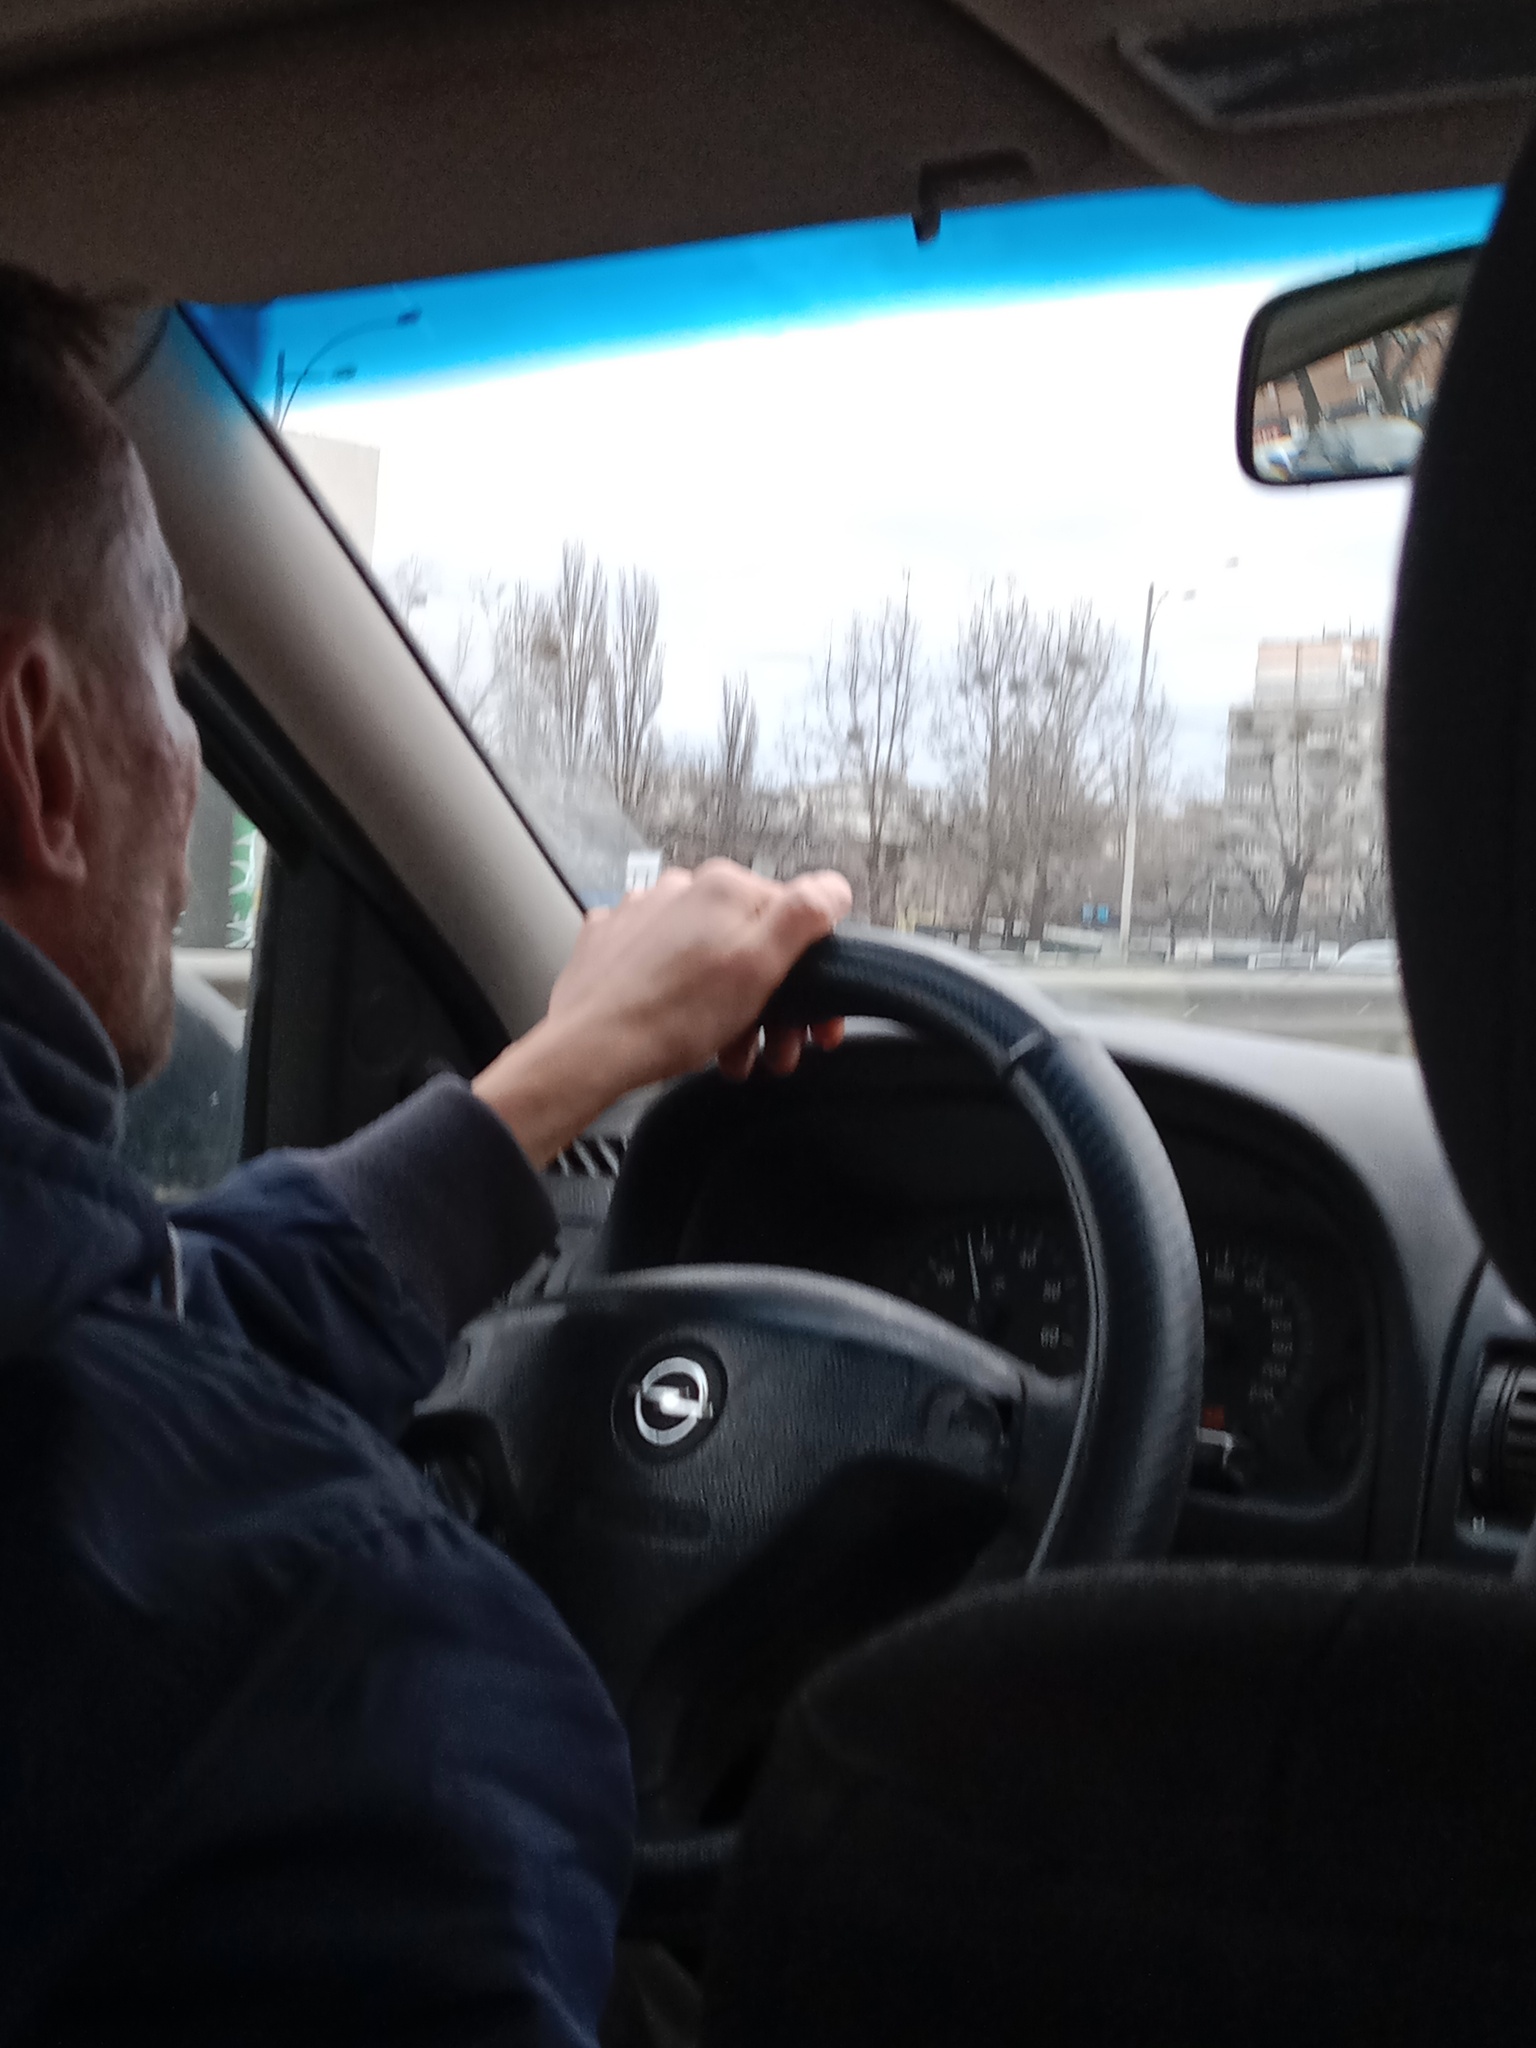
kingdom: Plantae
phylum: Tracheophyta
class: Magnoliopsida
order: Santalales
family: Viscaceae
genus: Viscum
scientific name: Viscum album
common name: Mistletoe
